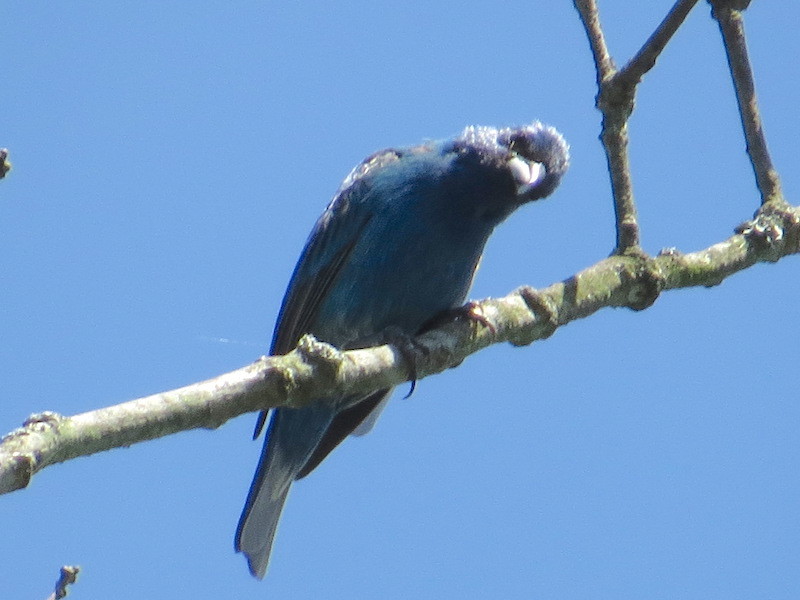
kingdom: Animalia
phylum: Chordata
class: Aves
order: Passeriformes
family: Cardinalidae
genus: Passerina
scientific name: Passerina cyanea
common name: Indigo bunting
